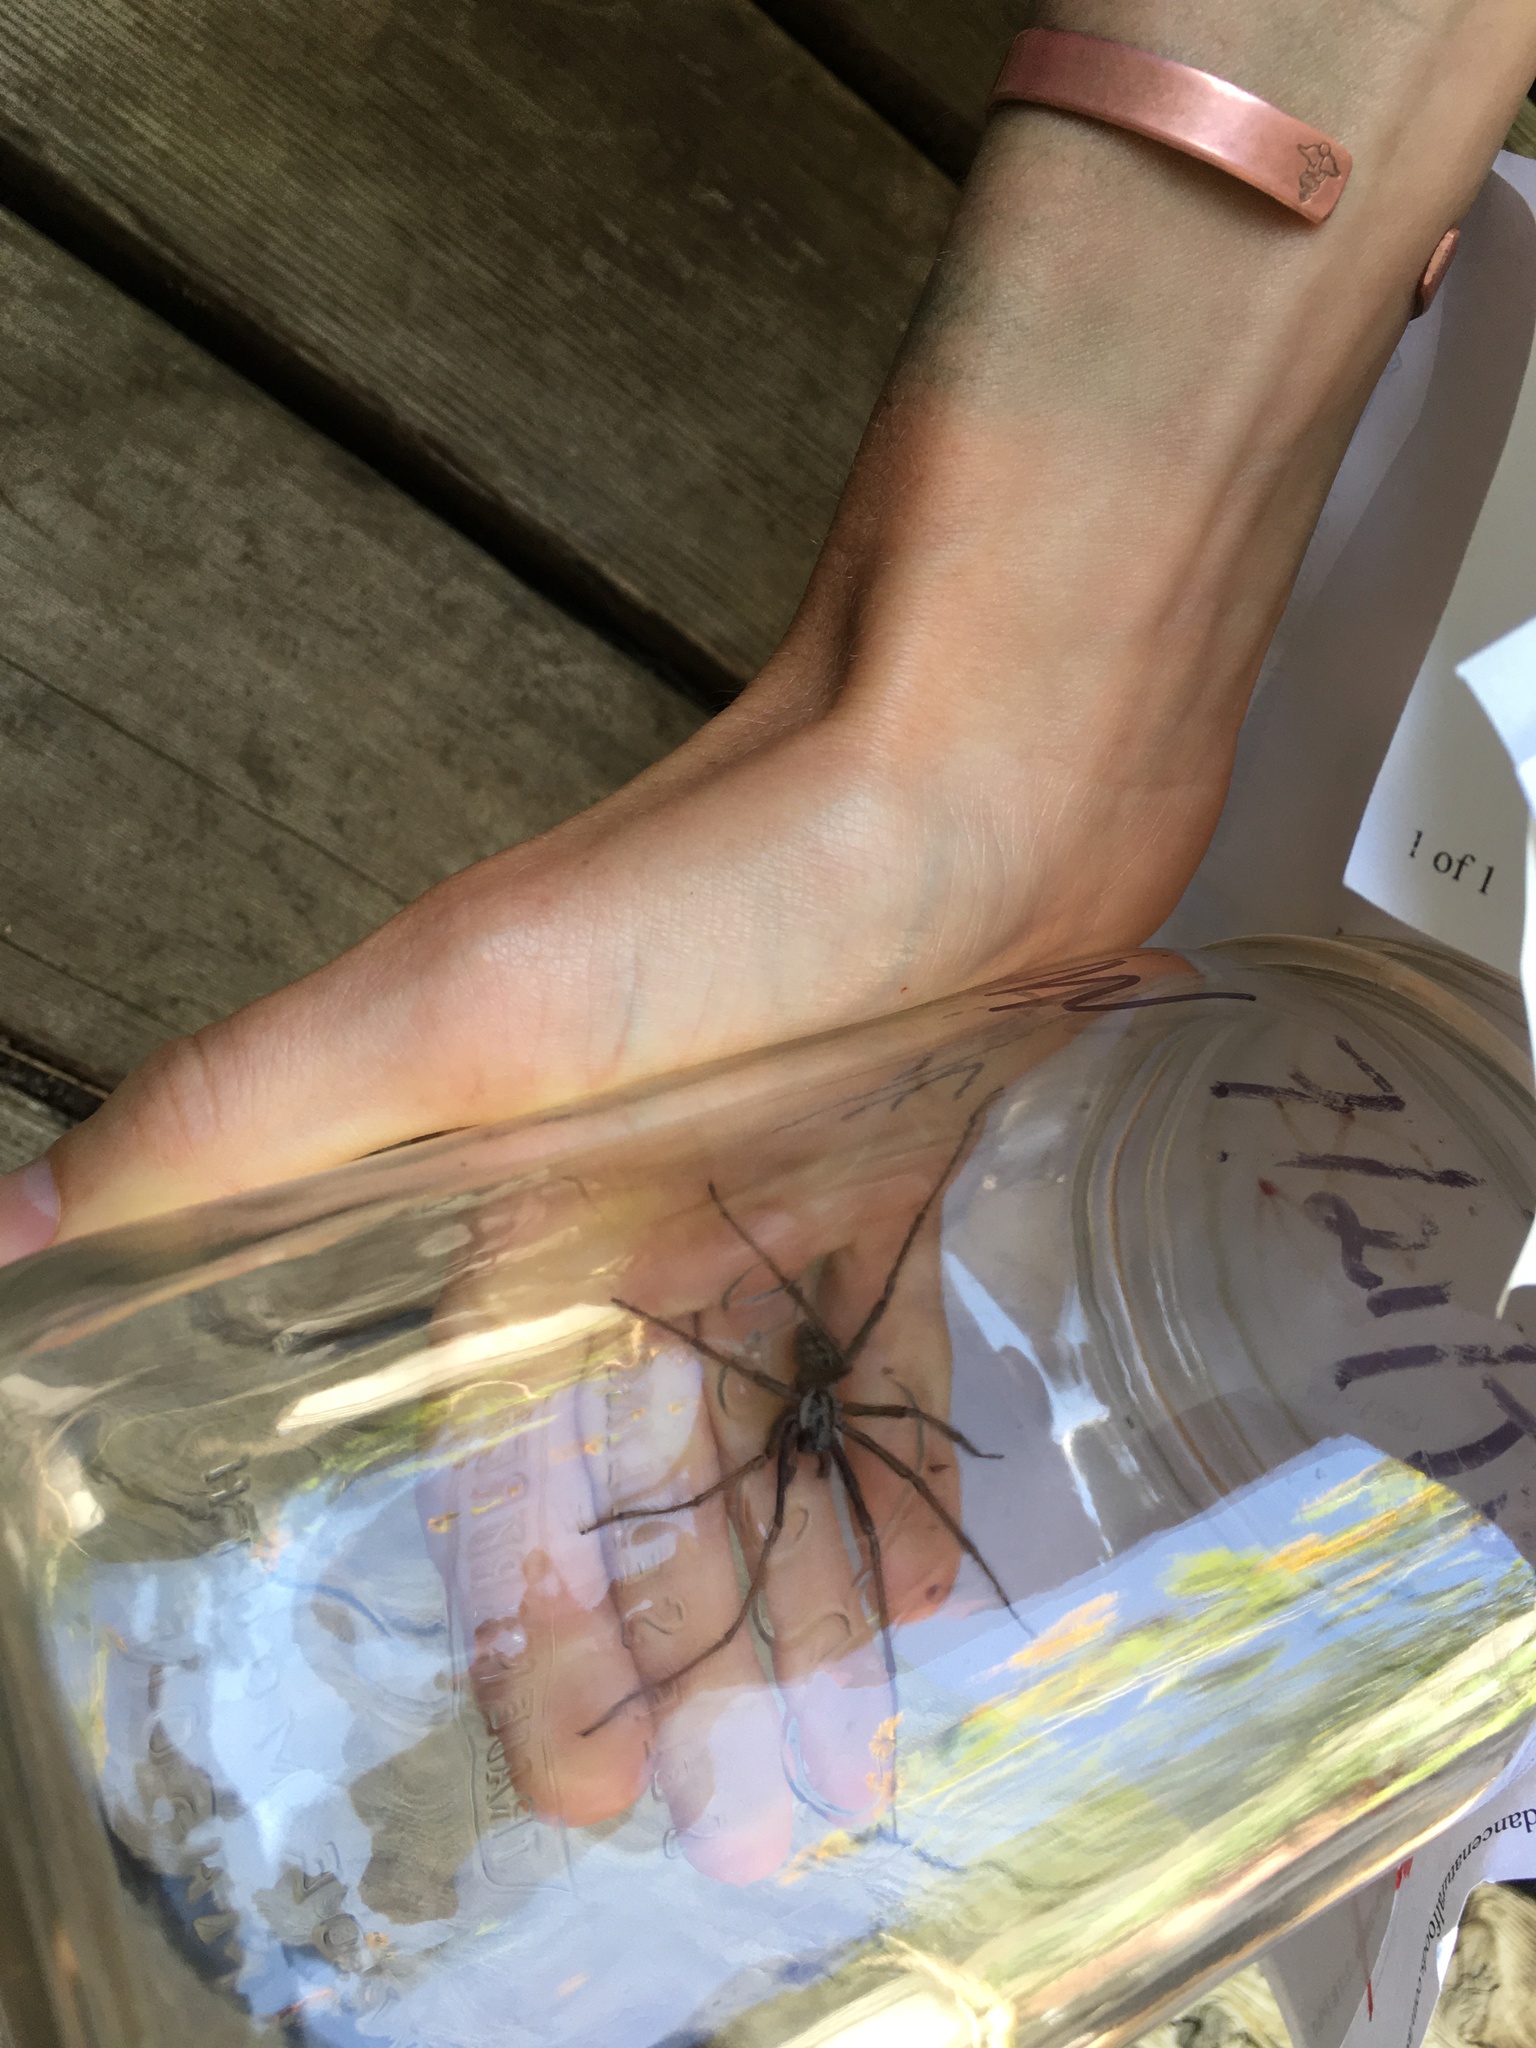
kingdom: Animalia
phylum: Arthropoda
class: Arachnida
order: Araneae
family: Agelenidae
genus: Eratigena
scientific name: Eratigena duellica
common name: Giant house spider
